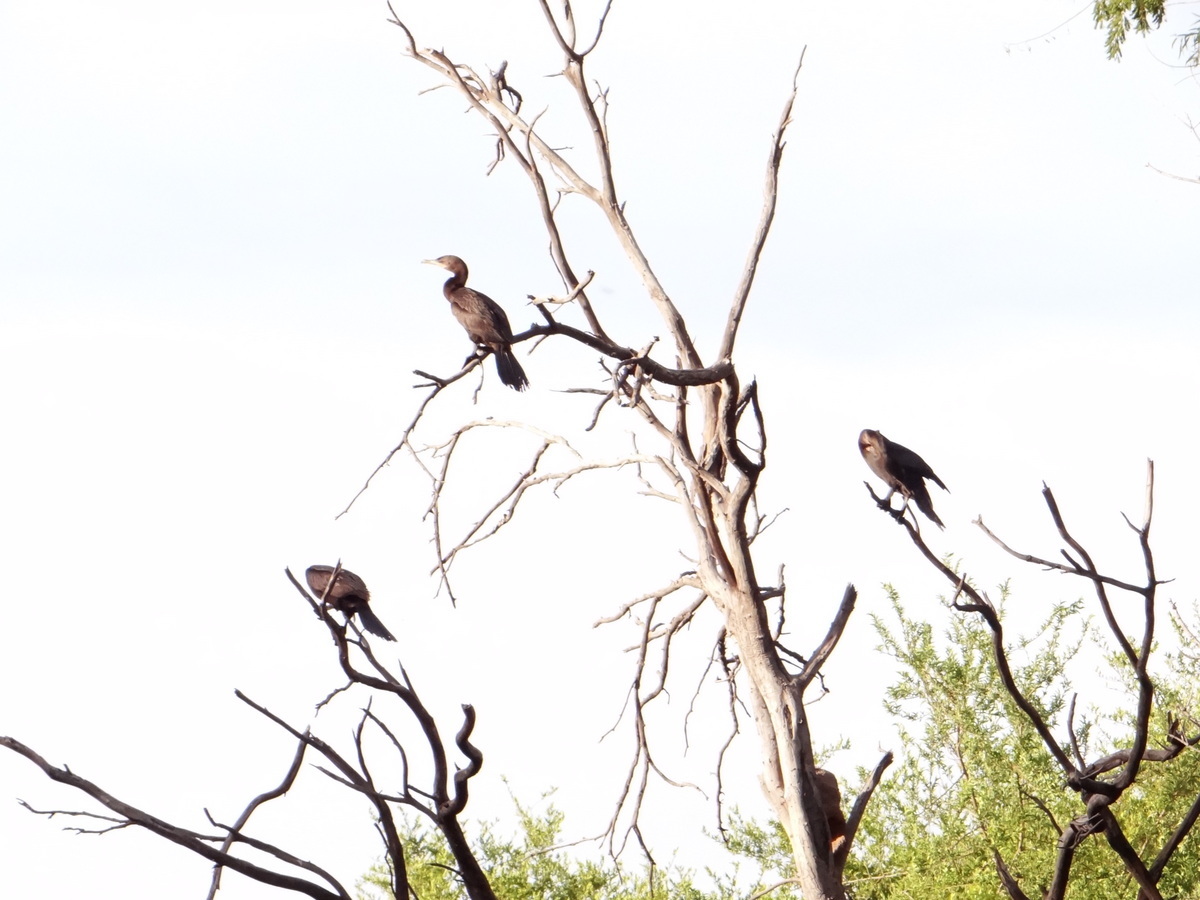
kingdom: Animalia
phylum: Chordata
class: Aves
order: Suliformes
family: Phalacrocoracidae
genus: Phalacrocorax
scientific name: Phalacrocorax brasilianus
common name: Neotropic cormorant
